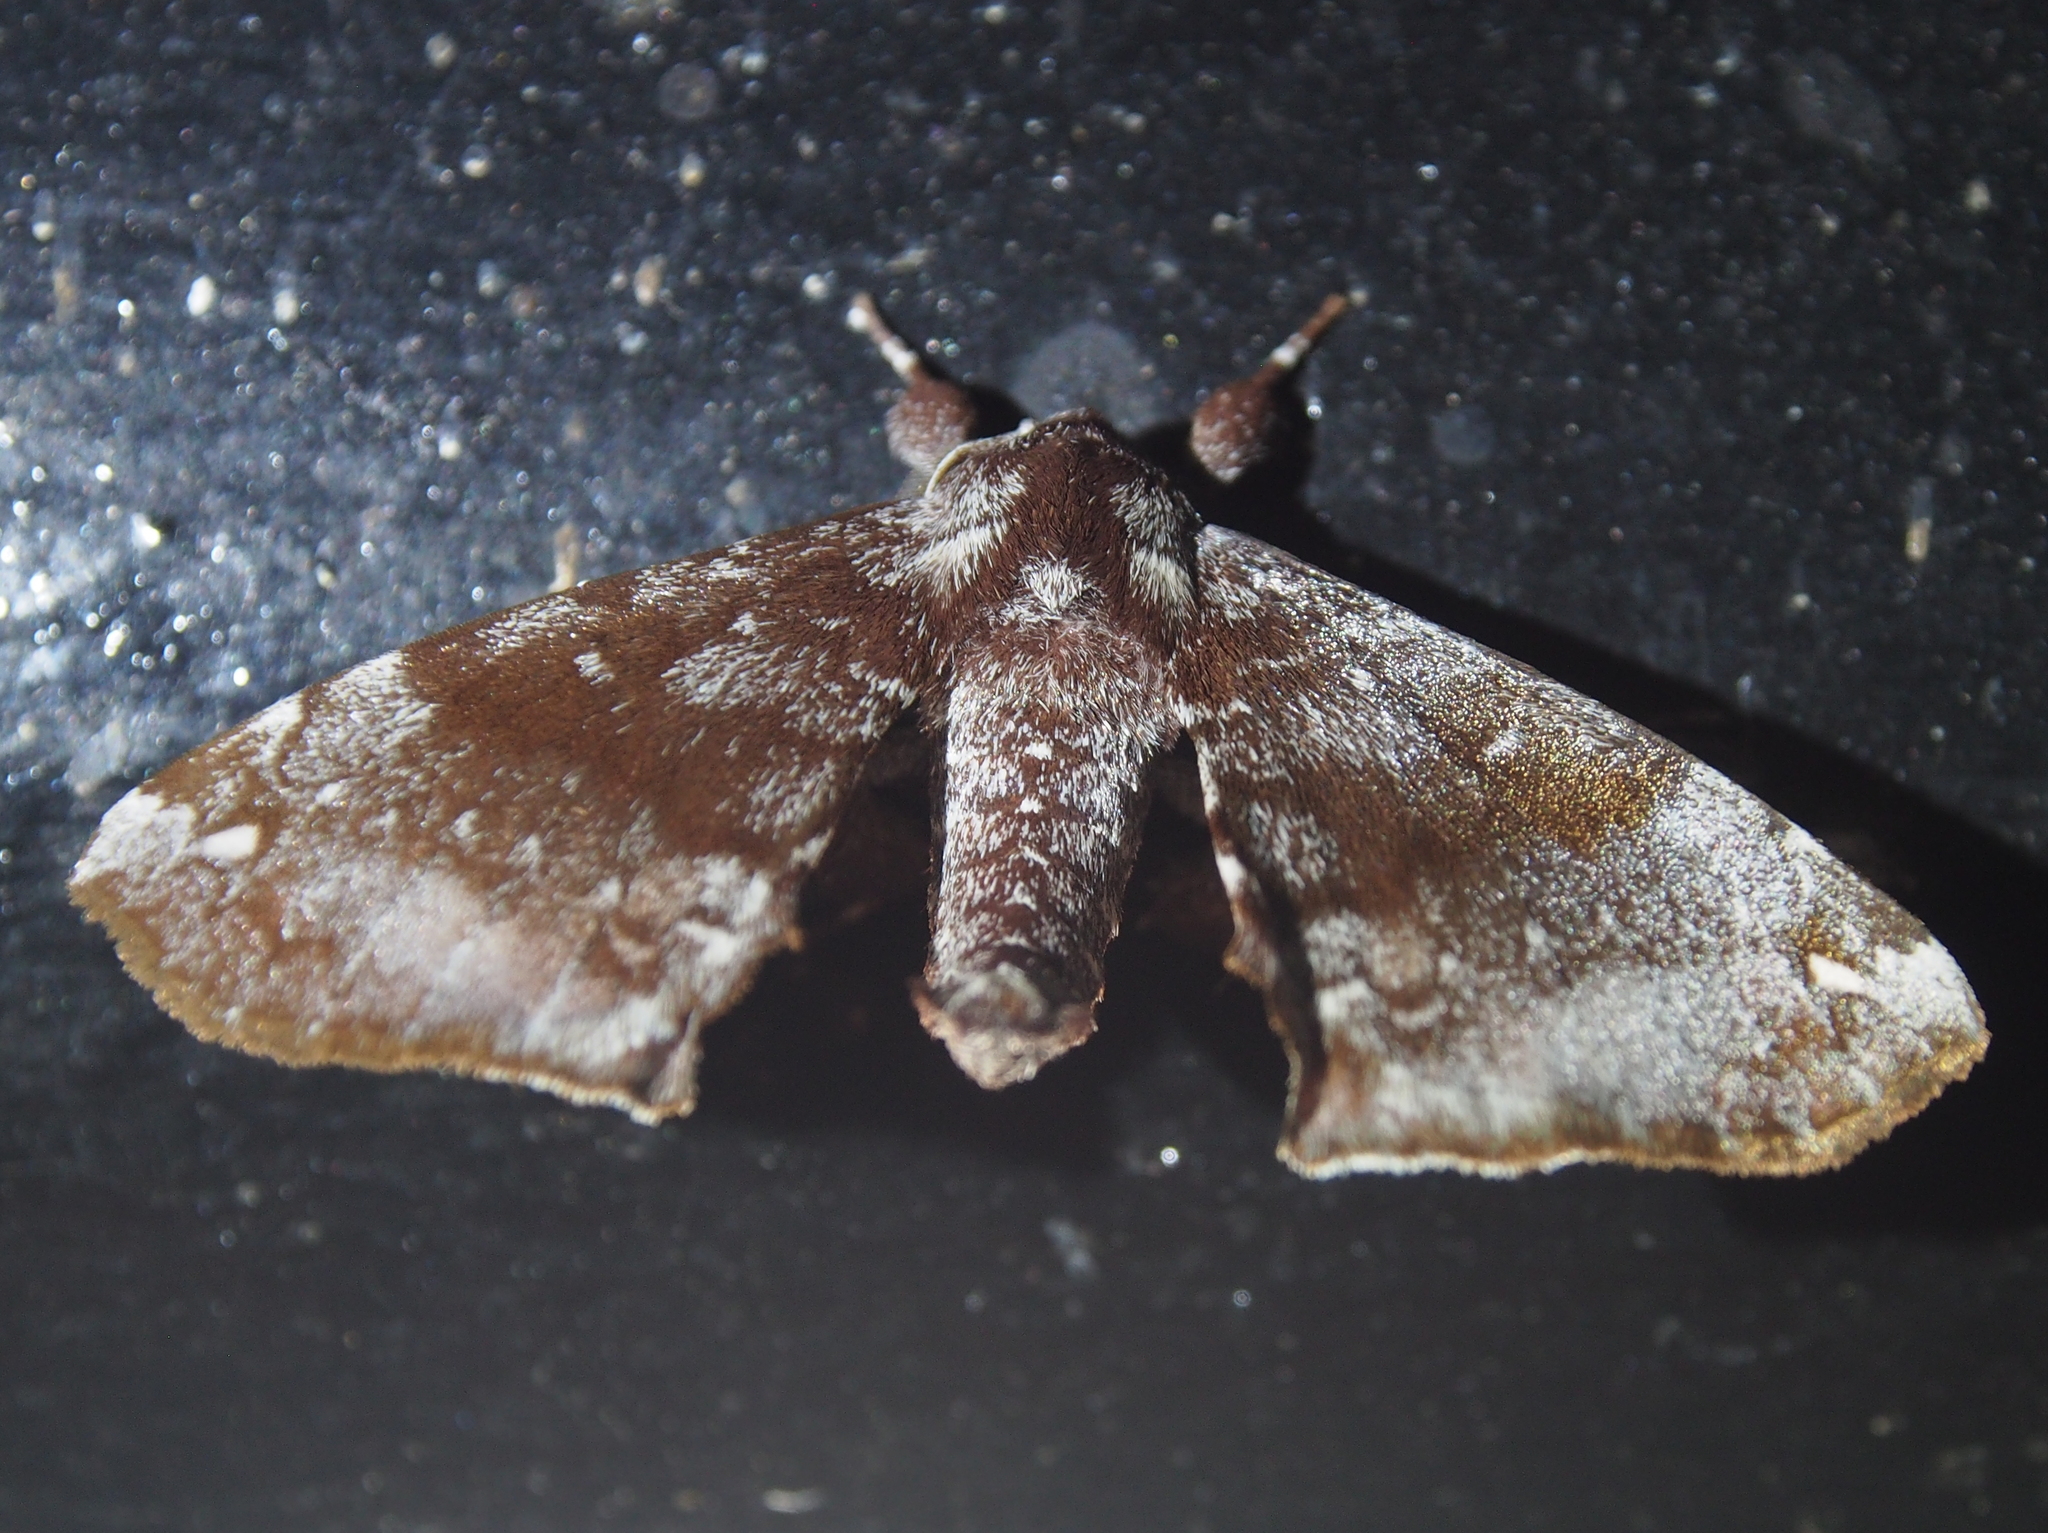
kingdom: Animalia
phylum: Arthropoda
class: Insecta
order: Lepidoptera
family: Apatelodidae
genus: Hygrochroa
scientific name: Hygrochroa Apatelodes albipunctata
